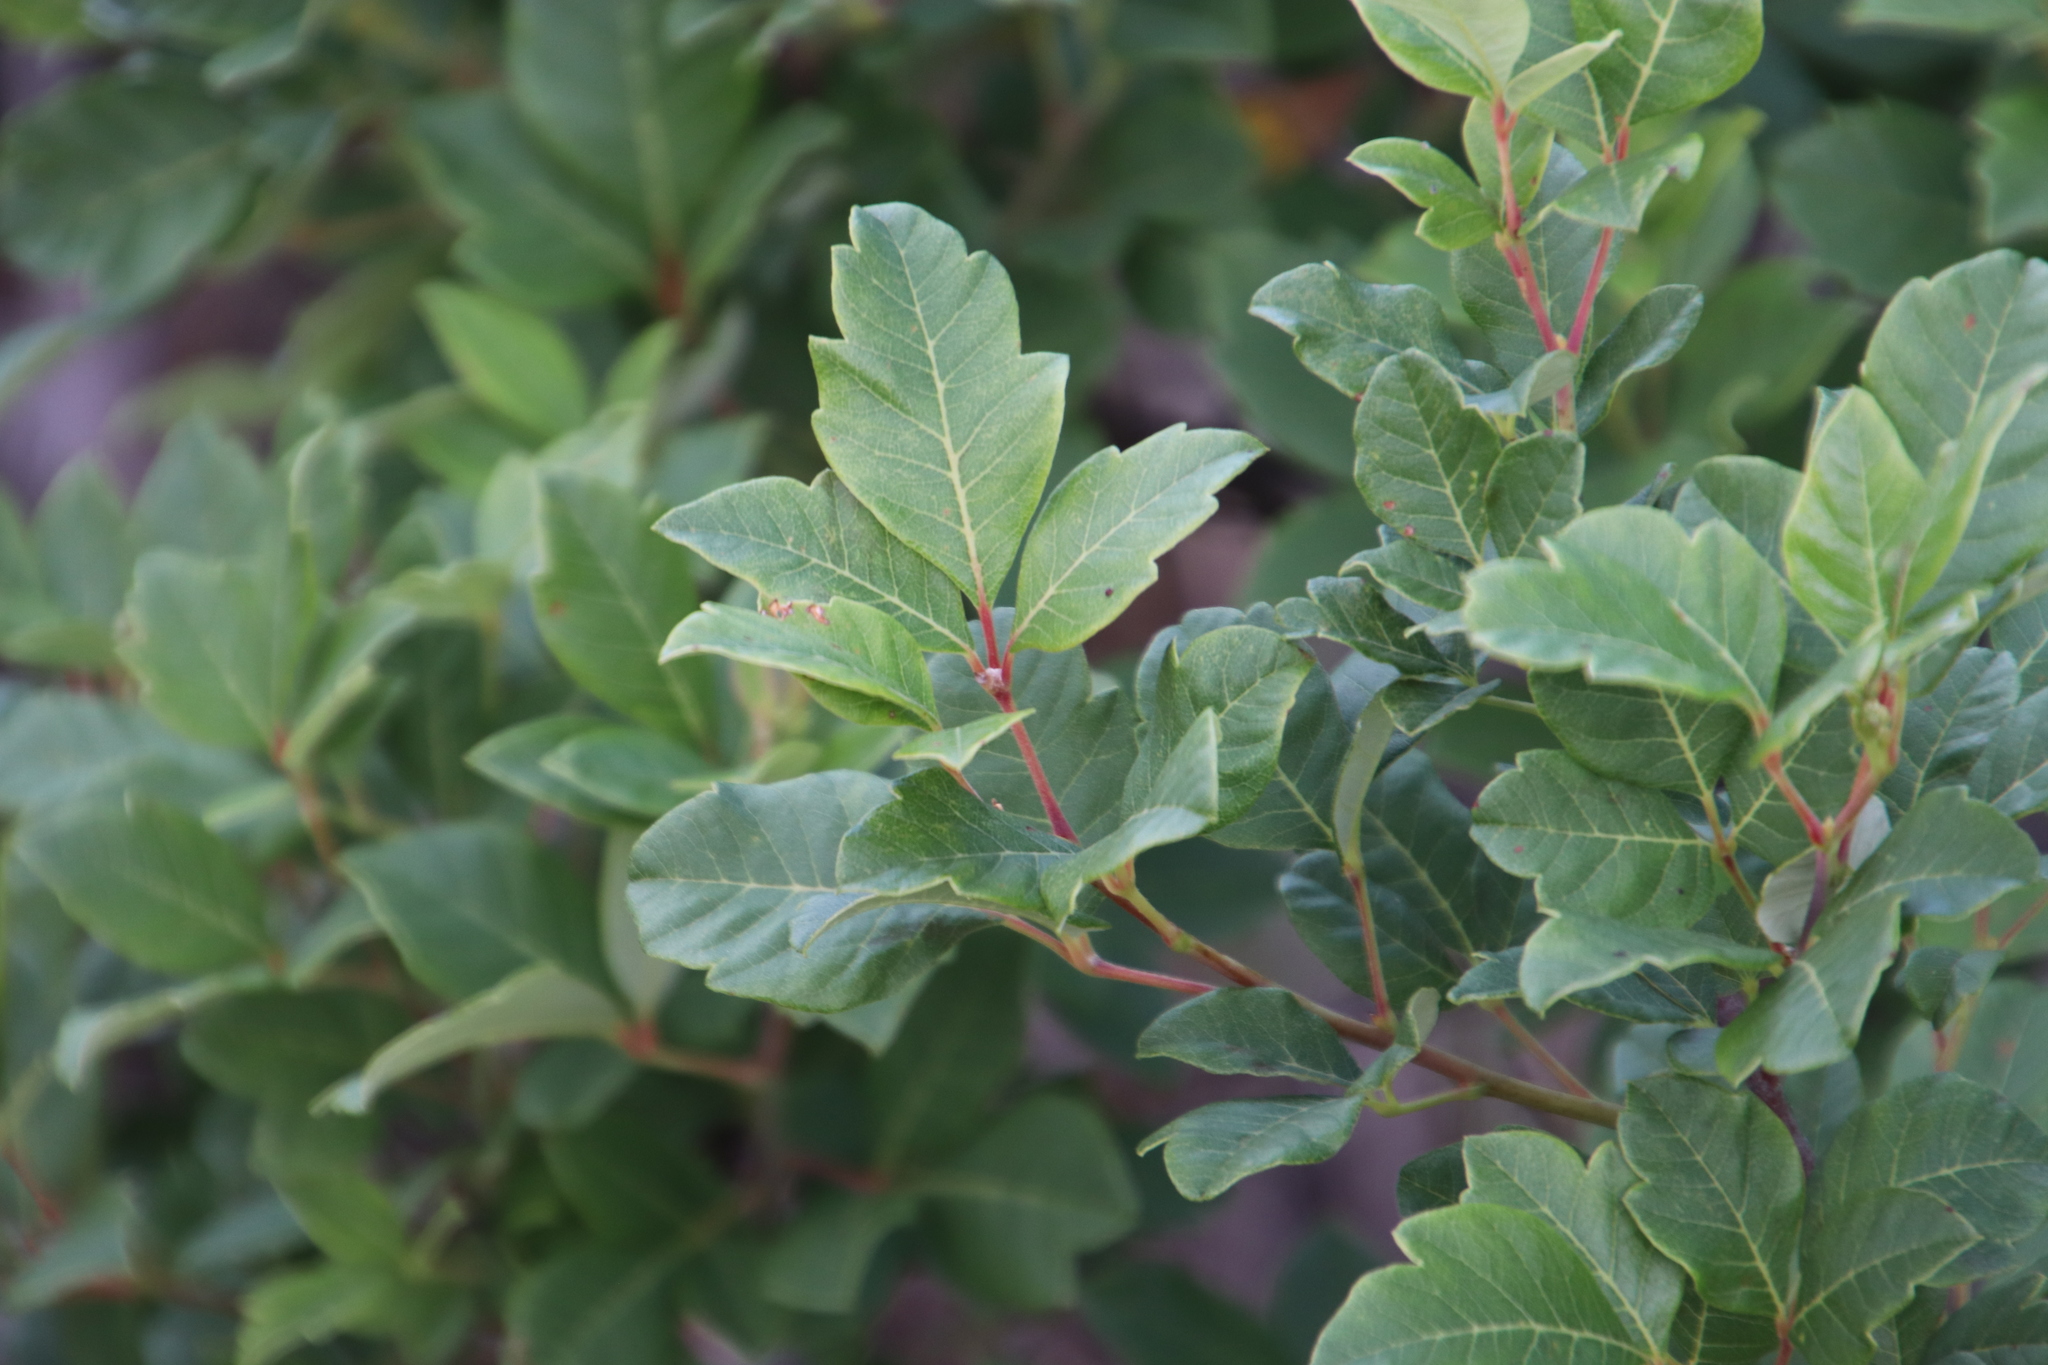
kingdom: Plantae
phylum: Tracheophyta
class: Magnoliopsida
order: Sapindales
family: Anacardiaceae
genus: Searsia
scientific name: Searsia tomentosa
